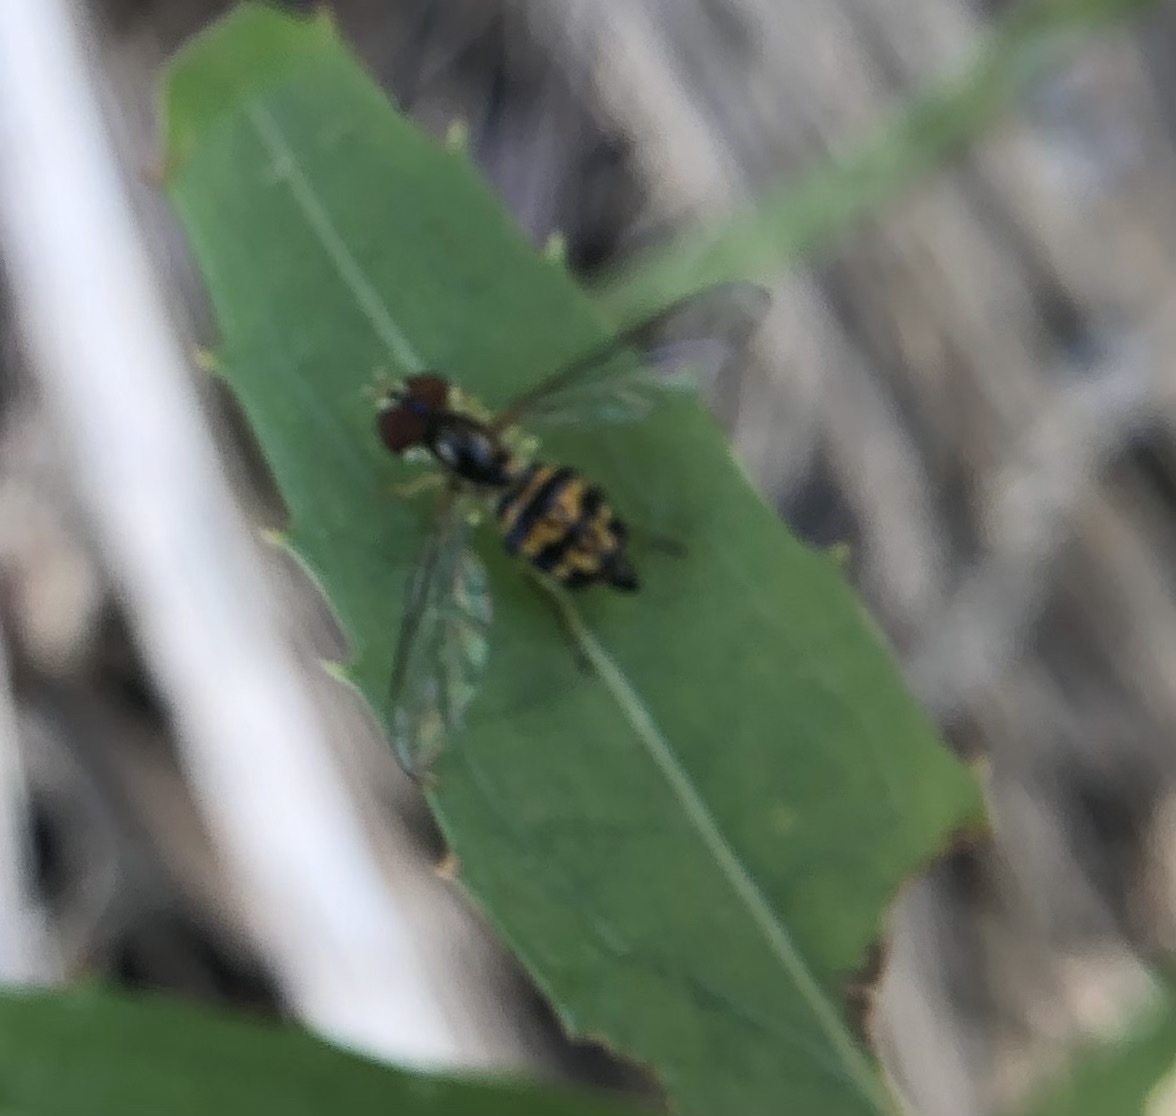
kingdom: Animalia
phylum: Arthropoda
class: Insecta
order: Diptera
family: Syrphidae
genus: Toxomerus
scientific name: Toxomerus geminatus
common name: Eastern calligrapher
